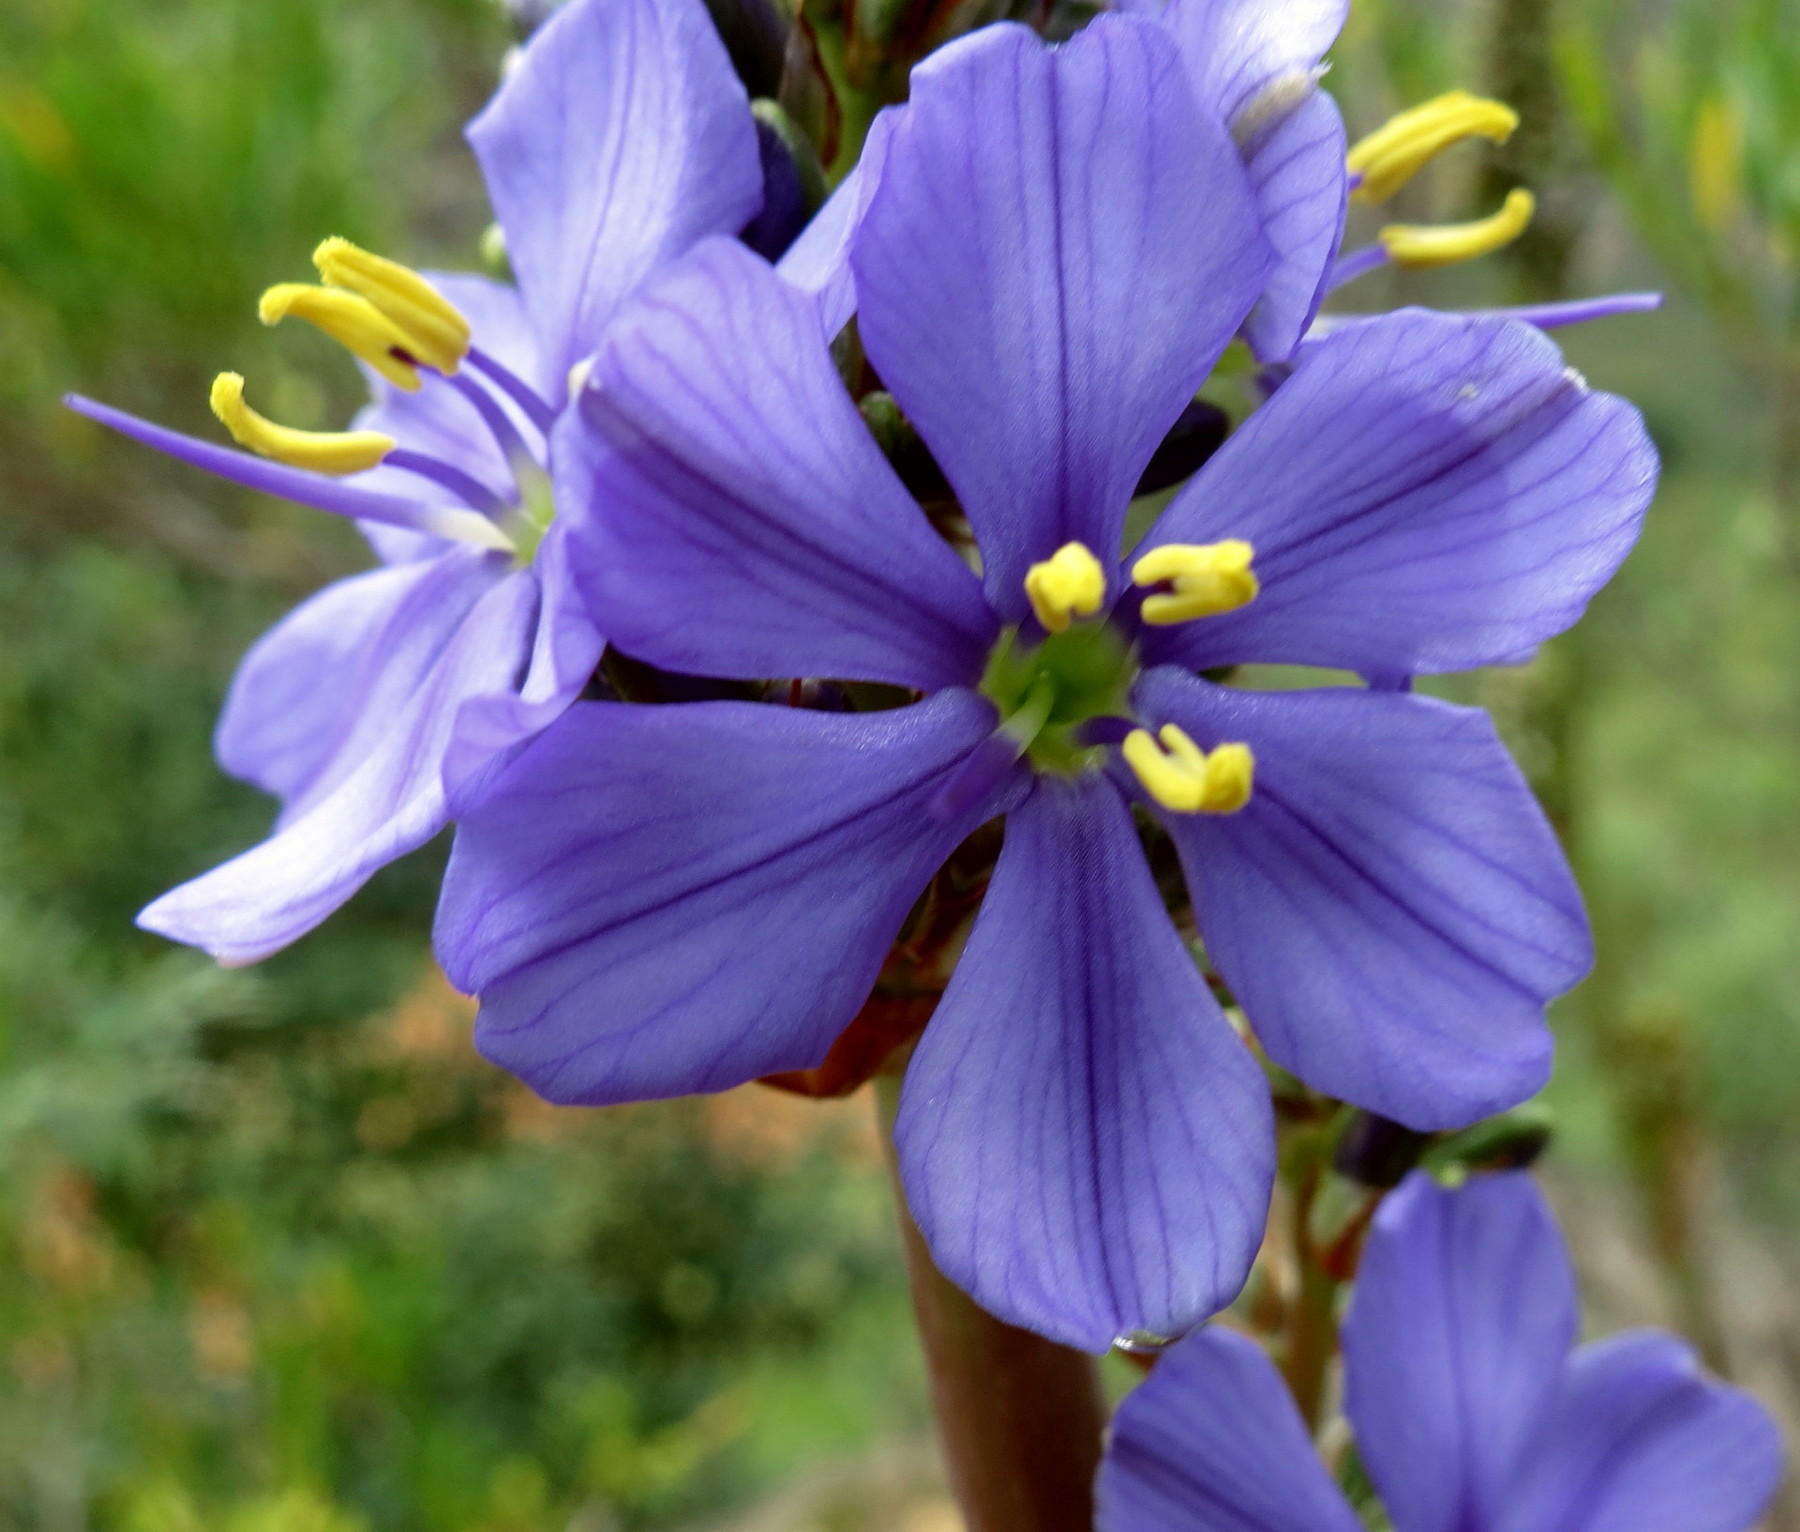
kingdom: Plantae
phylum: Tracheophyta
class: Liliopsida
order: Asparagales
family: Iridaceae
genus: Aristea
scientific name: Aristea capitata
